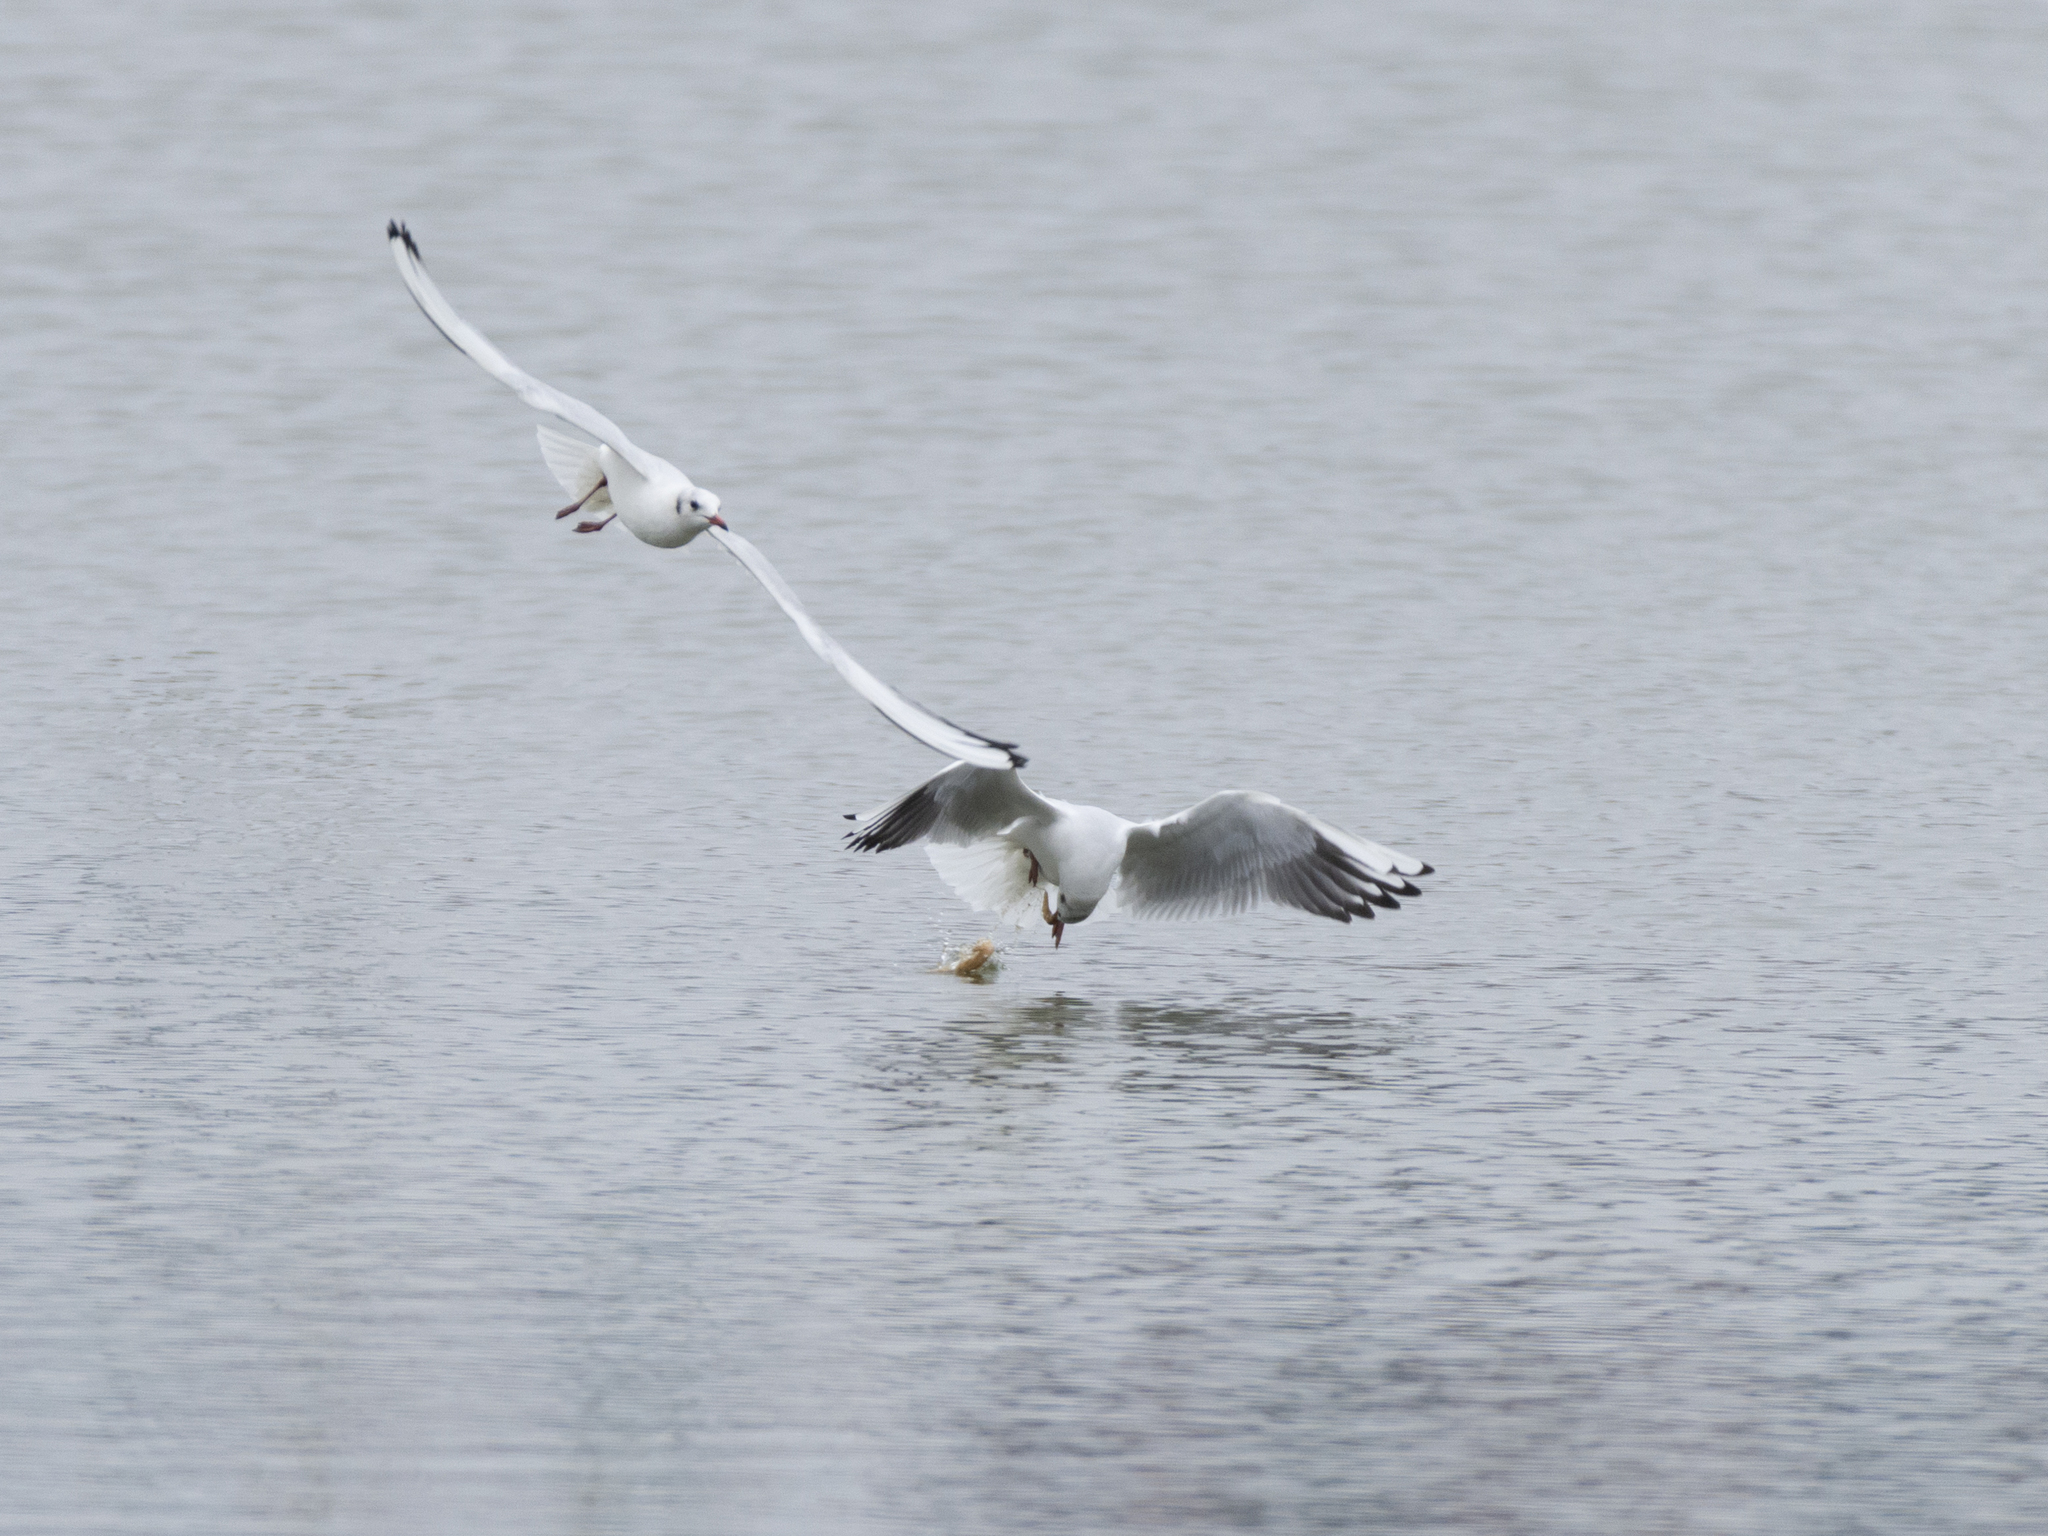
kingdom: Animalia
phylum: Chordata
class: Aves
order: Charadriiformes
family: Laridae
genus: Chroicocephalus
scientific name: Chroicocephalus ridibundus
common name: Black-headed gull
